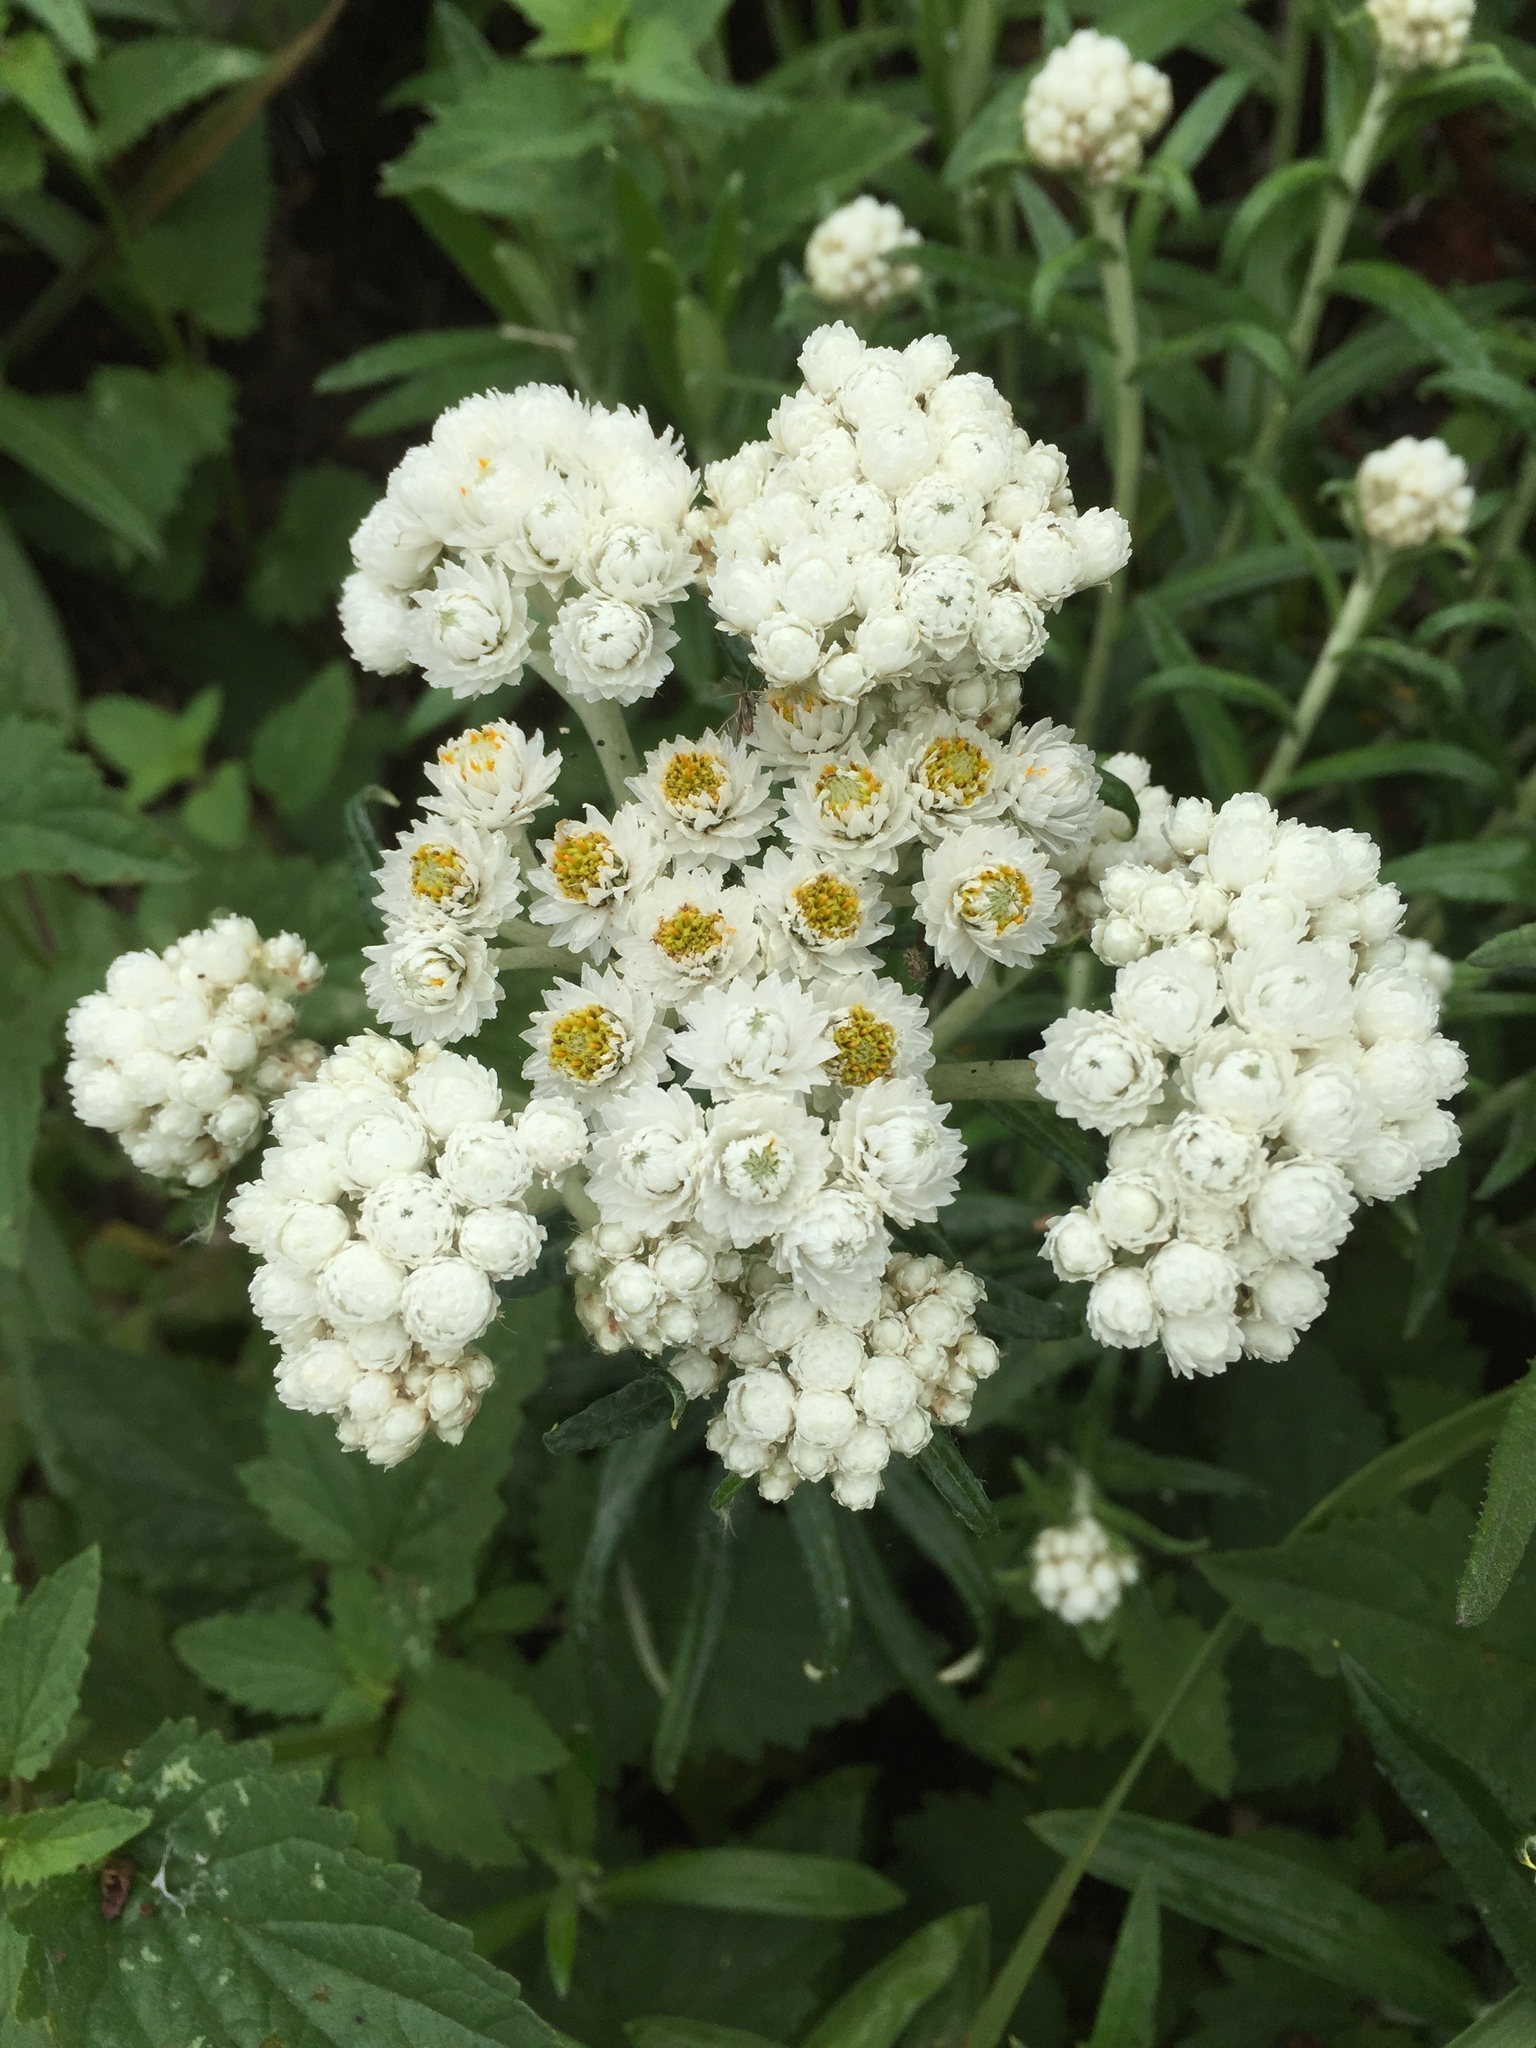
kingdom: Plantae
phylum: Tracheophyta
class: Magnoliopsida
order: Asterales
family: Asteraceae
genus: Anaphalis
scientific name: Anaphalis margaritacea
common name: Pearly everlasting
